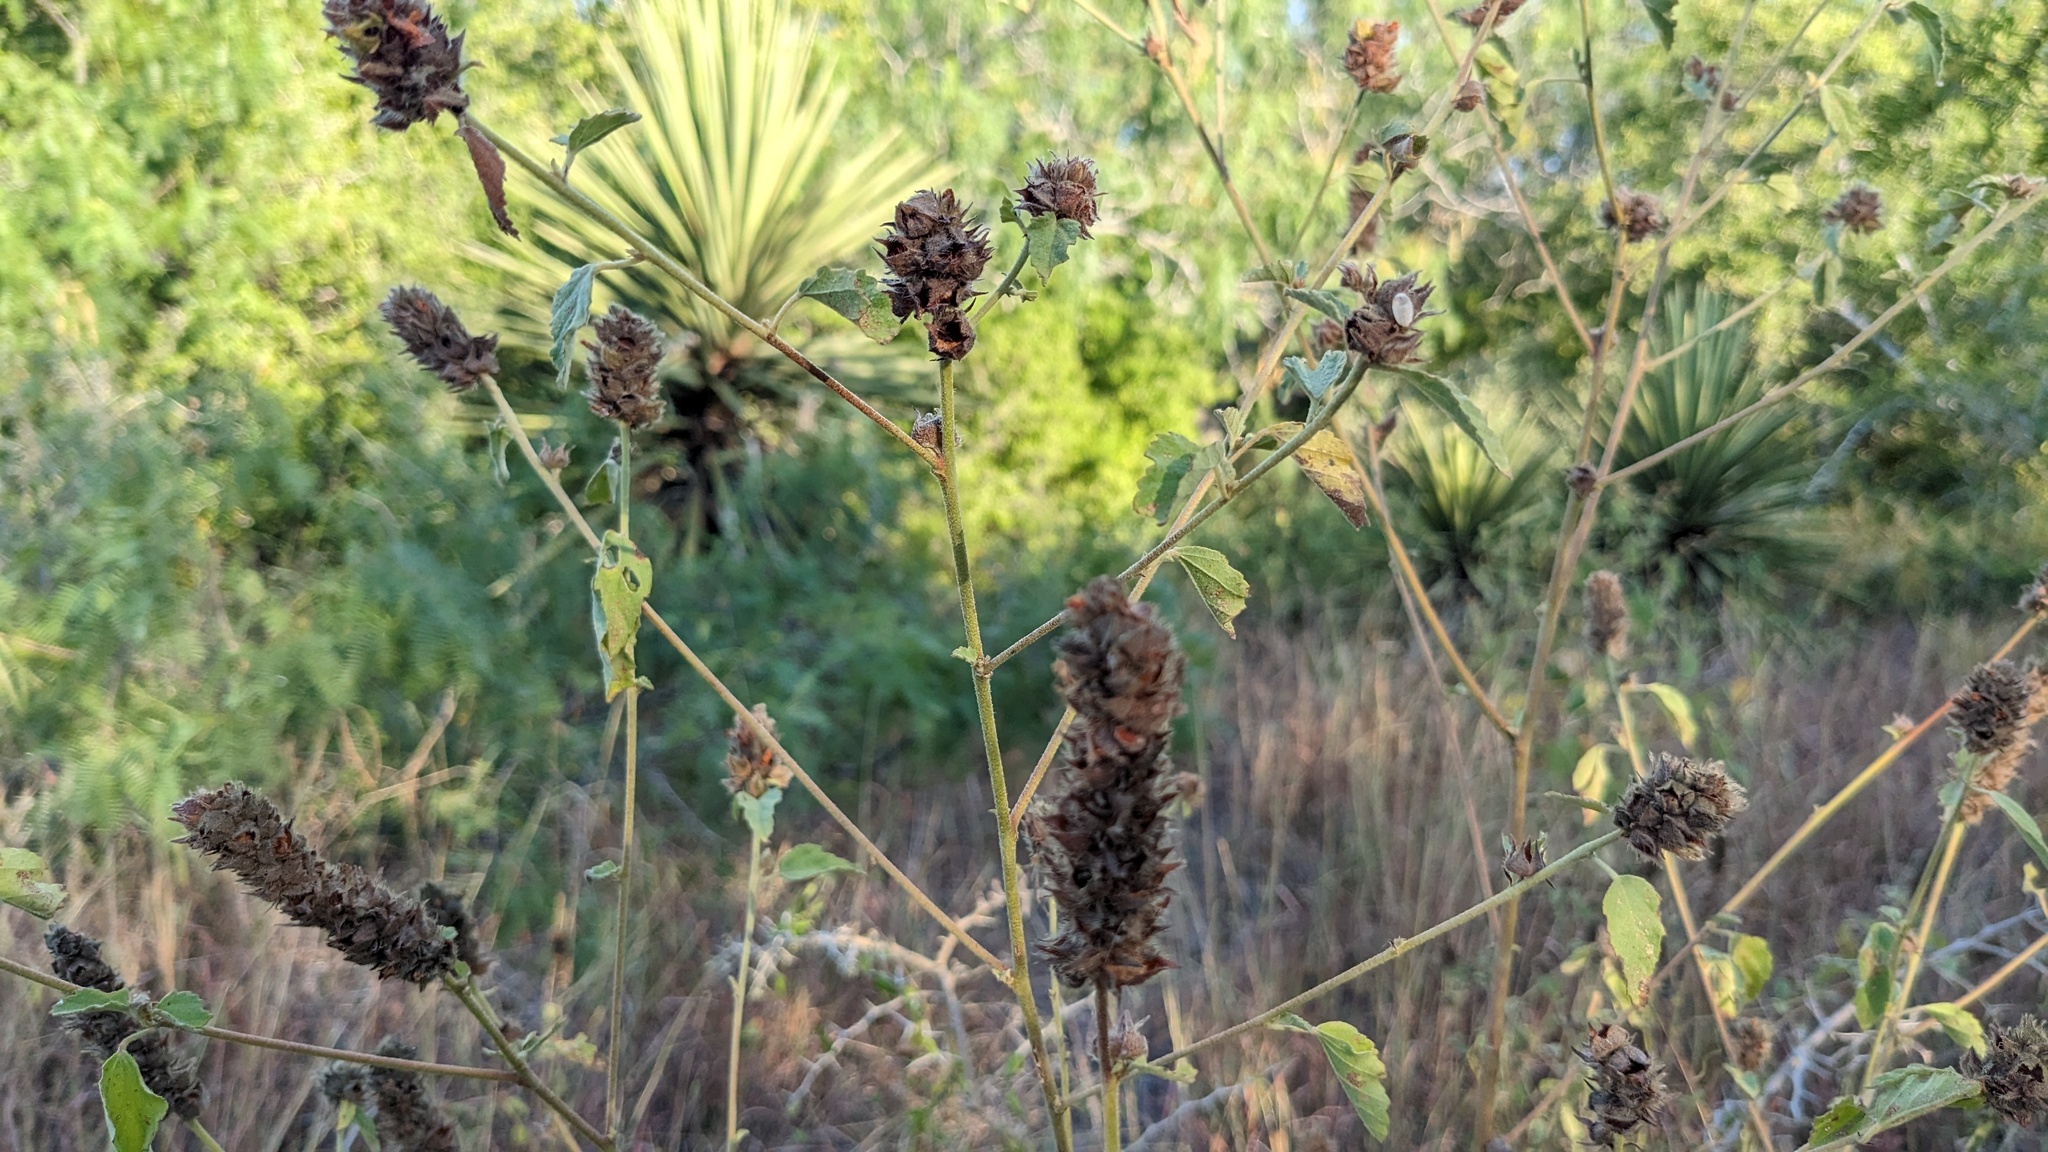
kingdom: Plantae
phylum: Tracheophyta
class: Magnoliopsida
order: Malvales
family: Malvaceae
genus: Malvastrum
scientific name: Malvastrum americanum
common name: Spiked malvastrum
